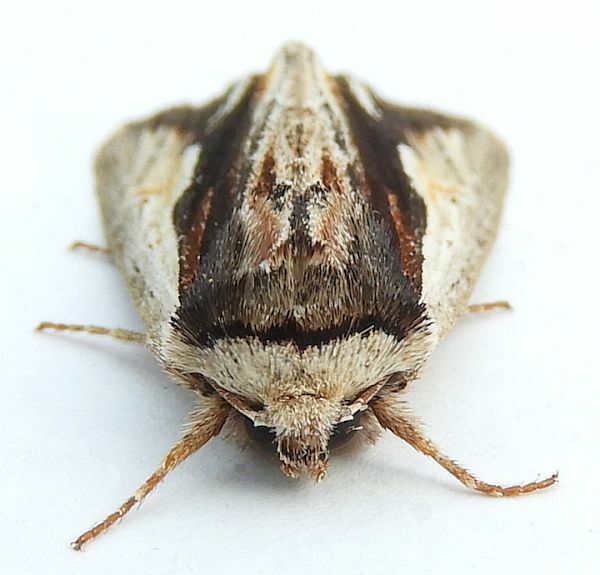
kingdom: Animalia
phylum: Arthropoda
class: Insecta
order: Lepidoptera
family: Noctuidae
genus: Achatia
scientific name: Achatia evicta
